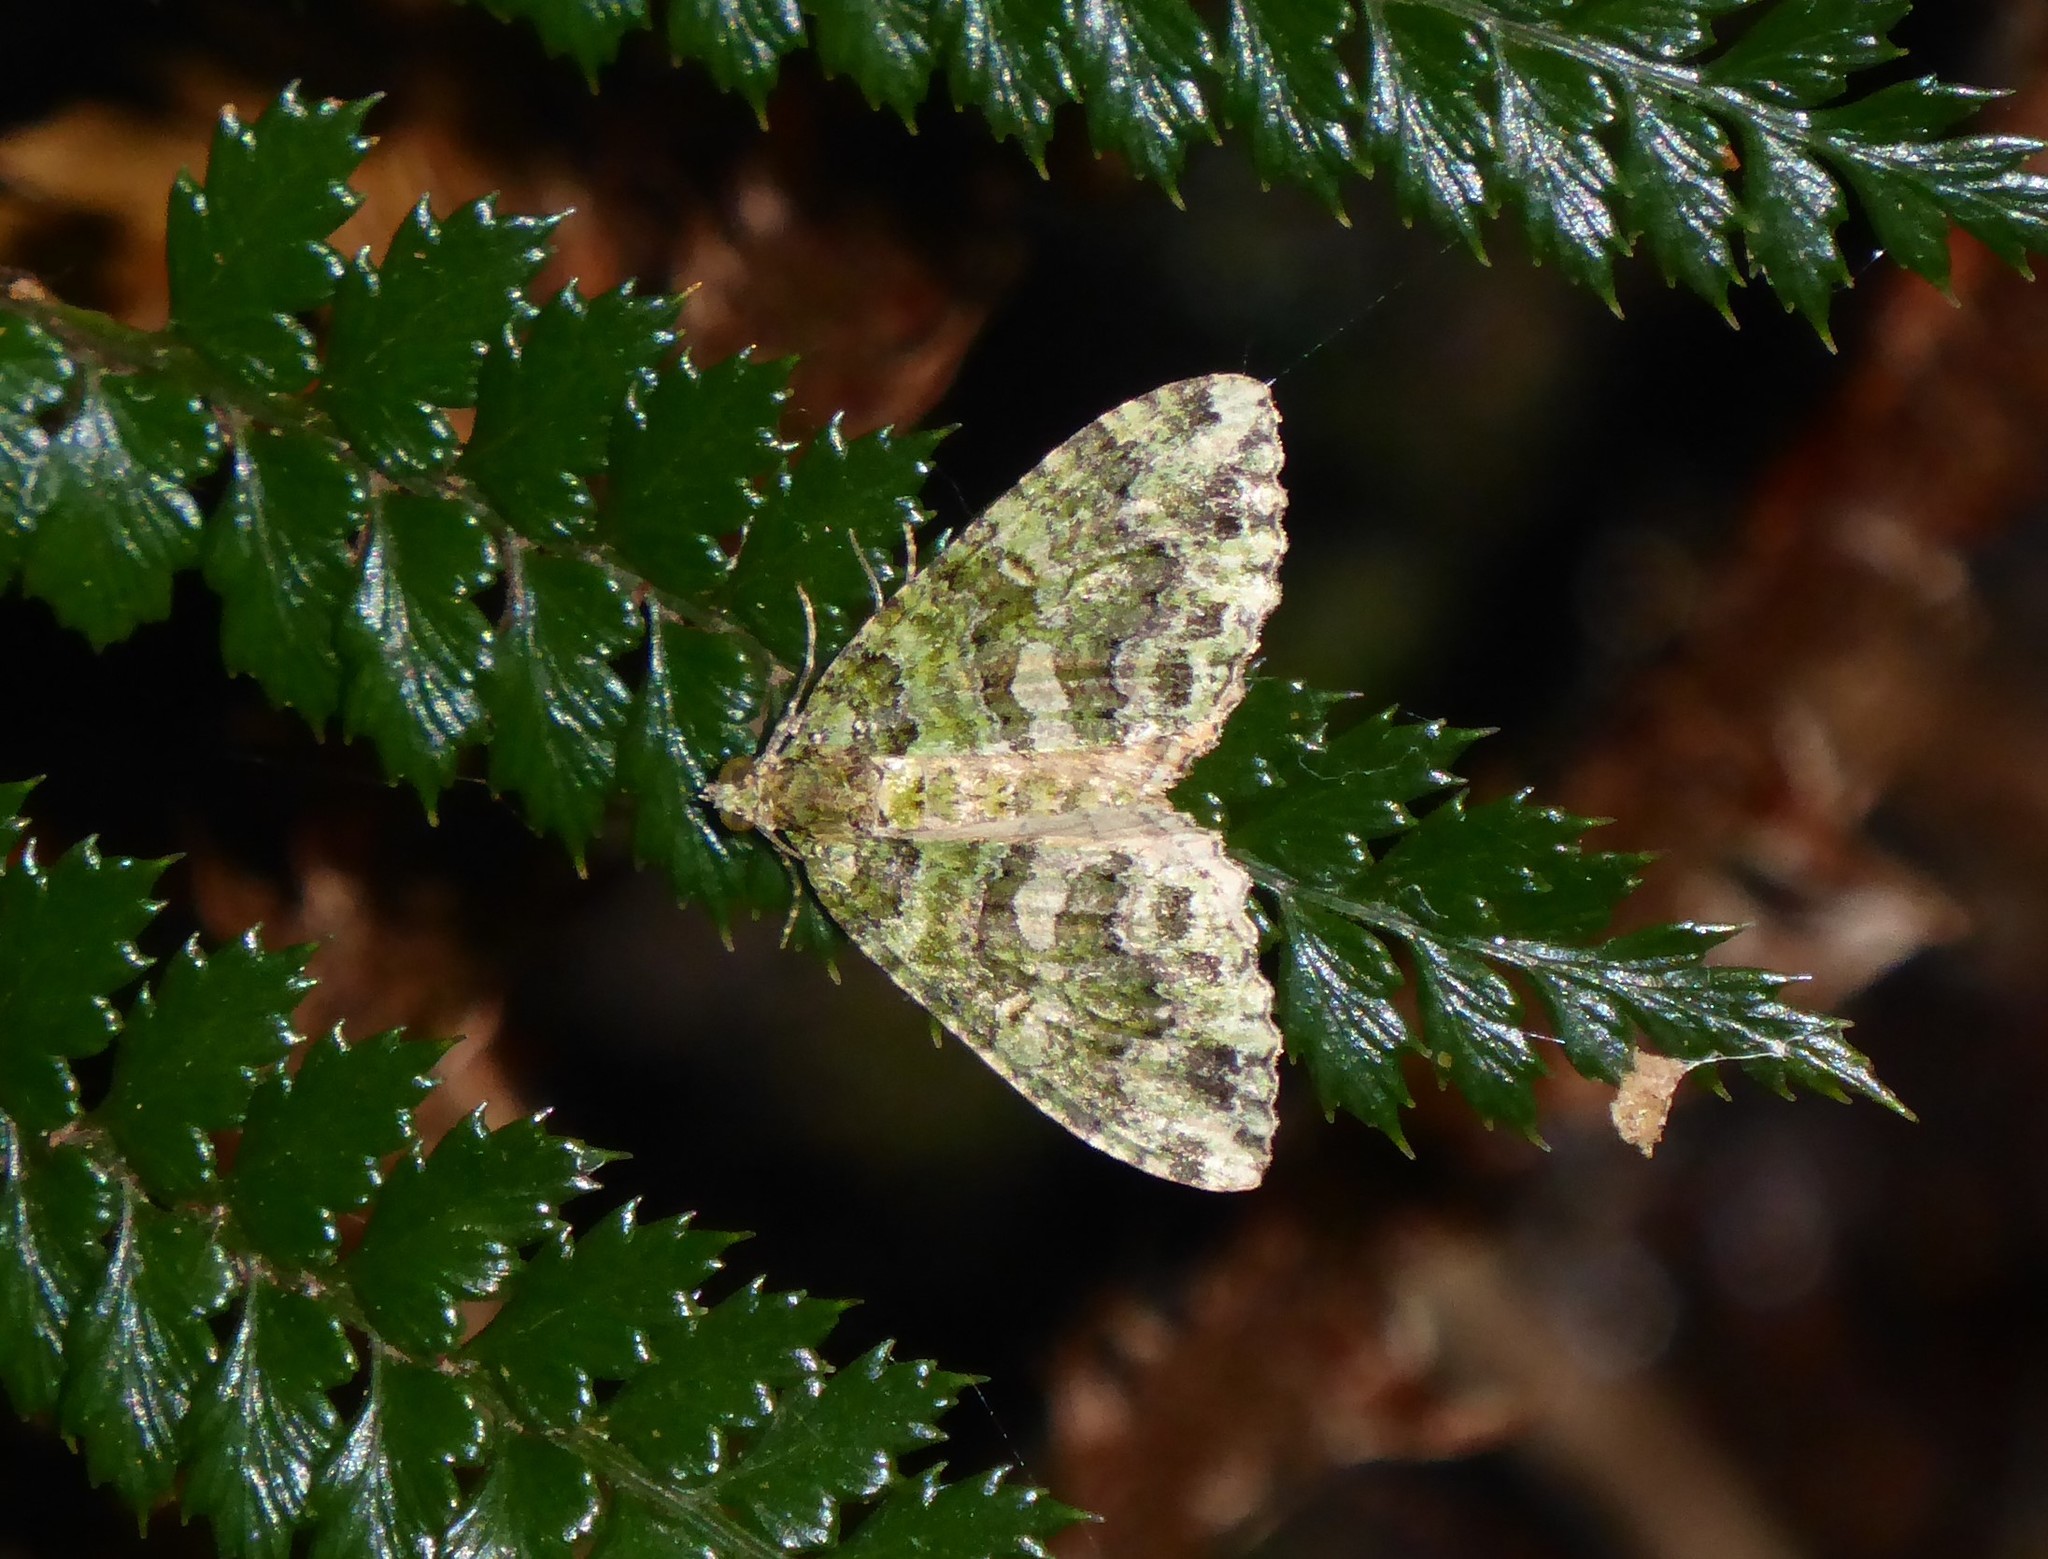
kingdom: Animalia
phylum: Arthropoda
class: Insecta
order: Lepidoptera
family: Geometridae
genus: Austrocidaria
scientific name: Austrocidaria similata
